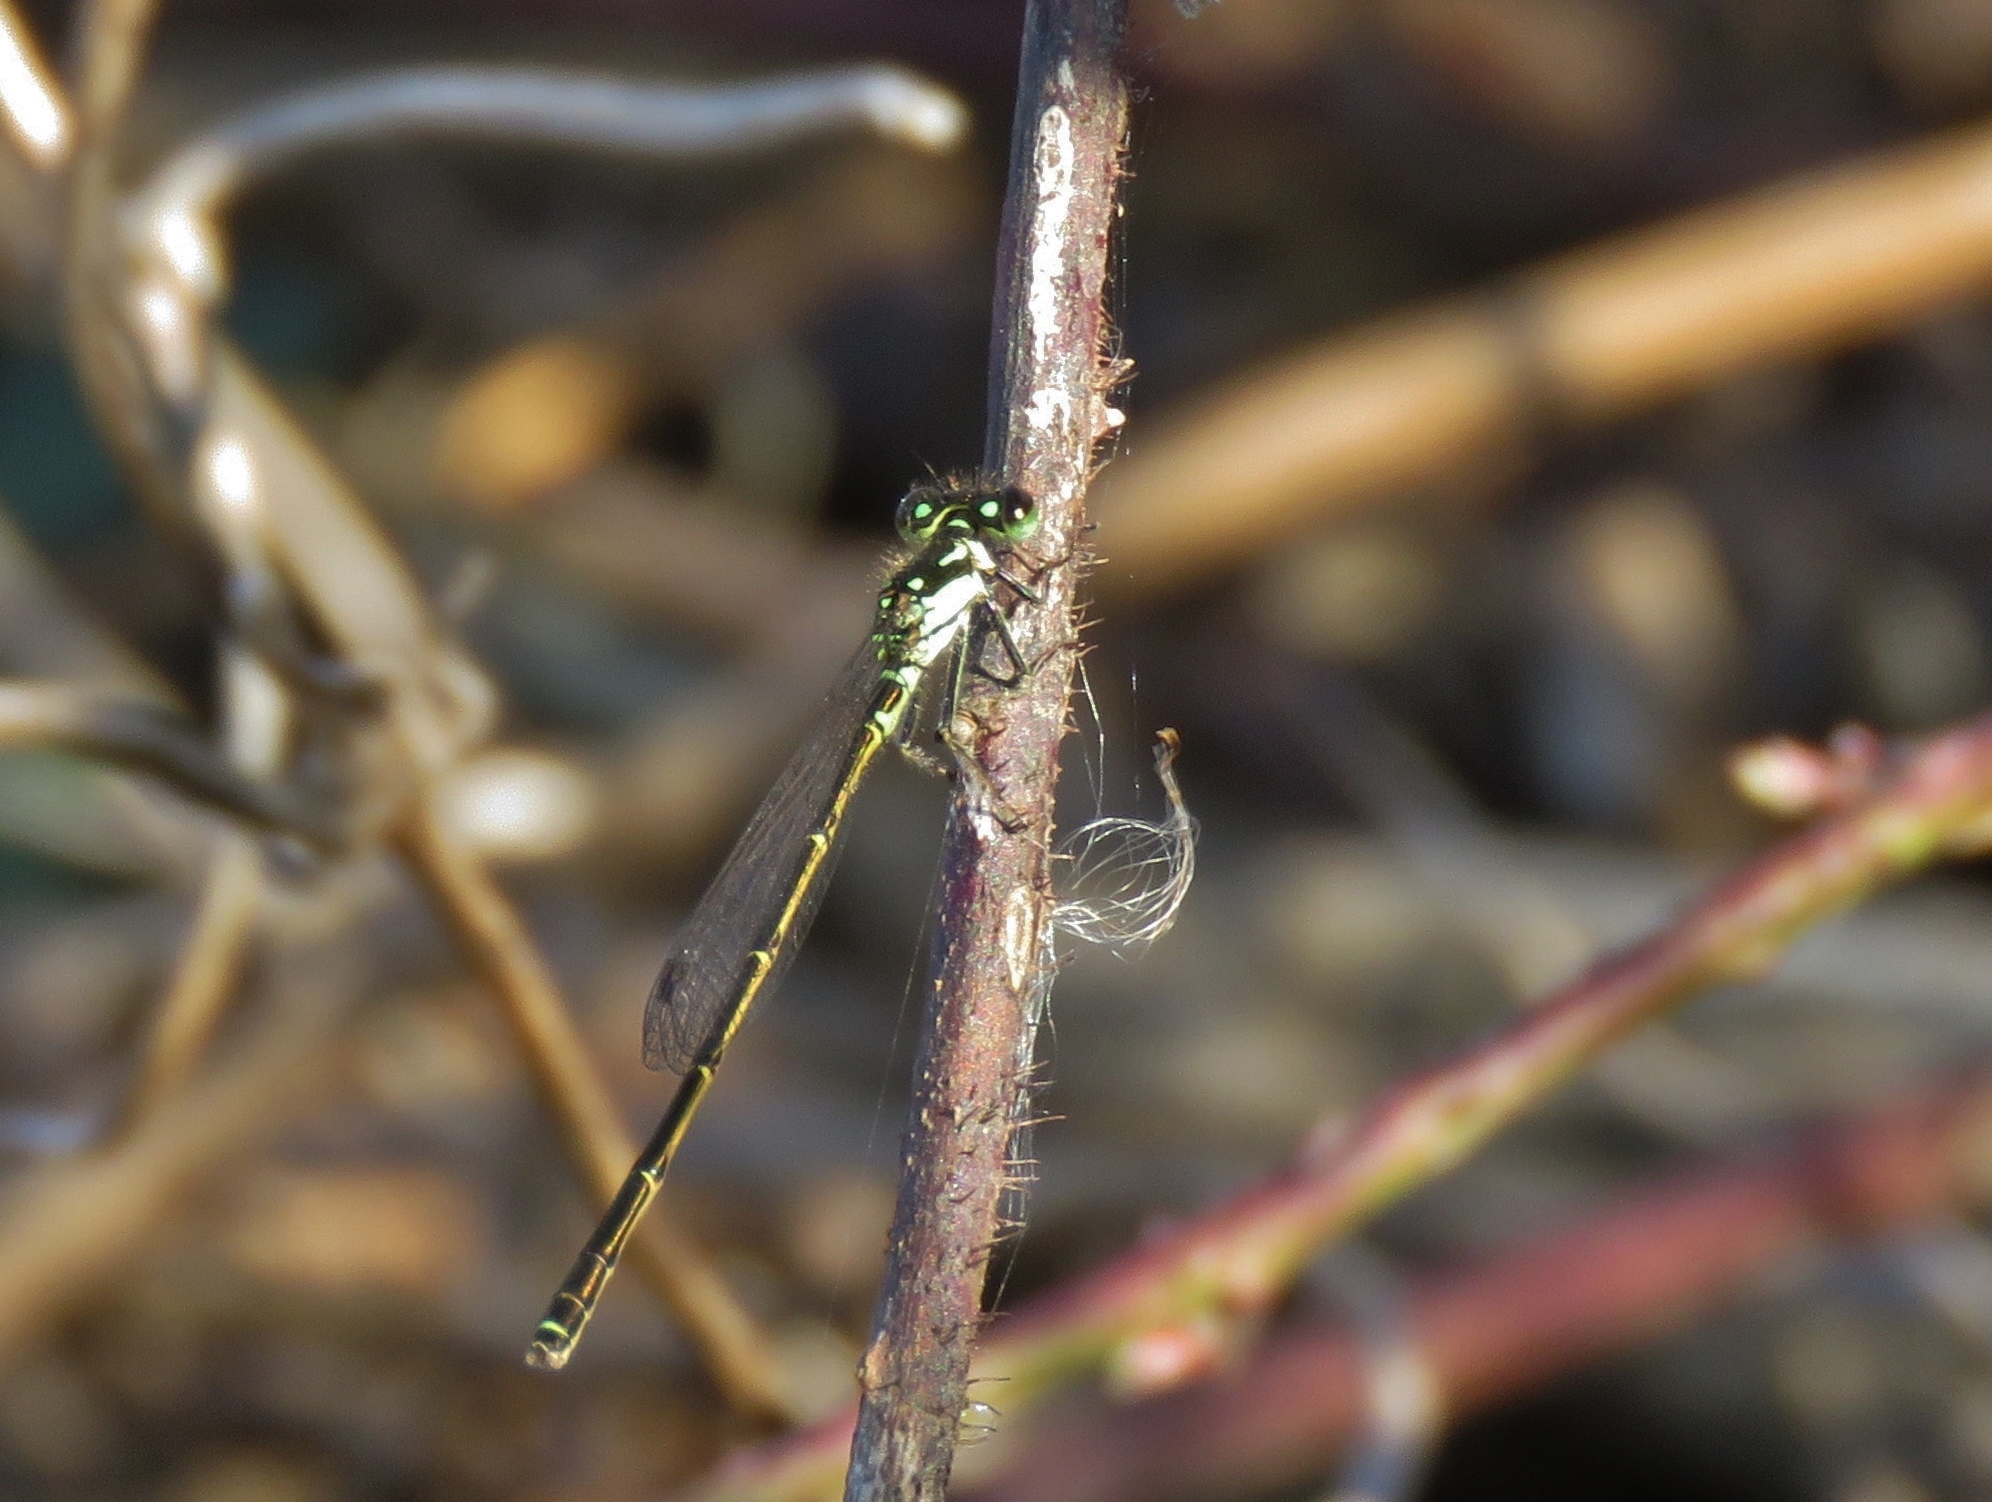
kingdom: Animalia
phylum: Arthropoda
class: Insecta
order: Odonata
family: Coenagrionidae
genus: Ischnura
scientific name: Ischnura posita
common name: Fragile forktail
